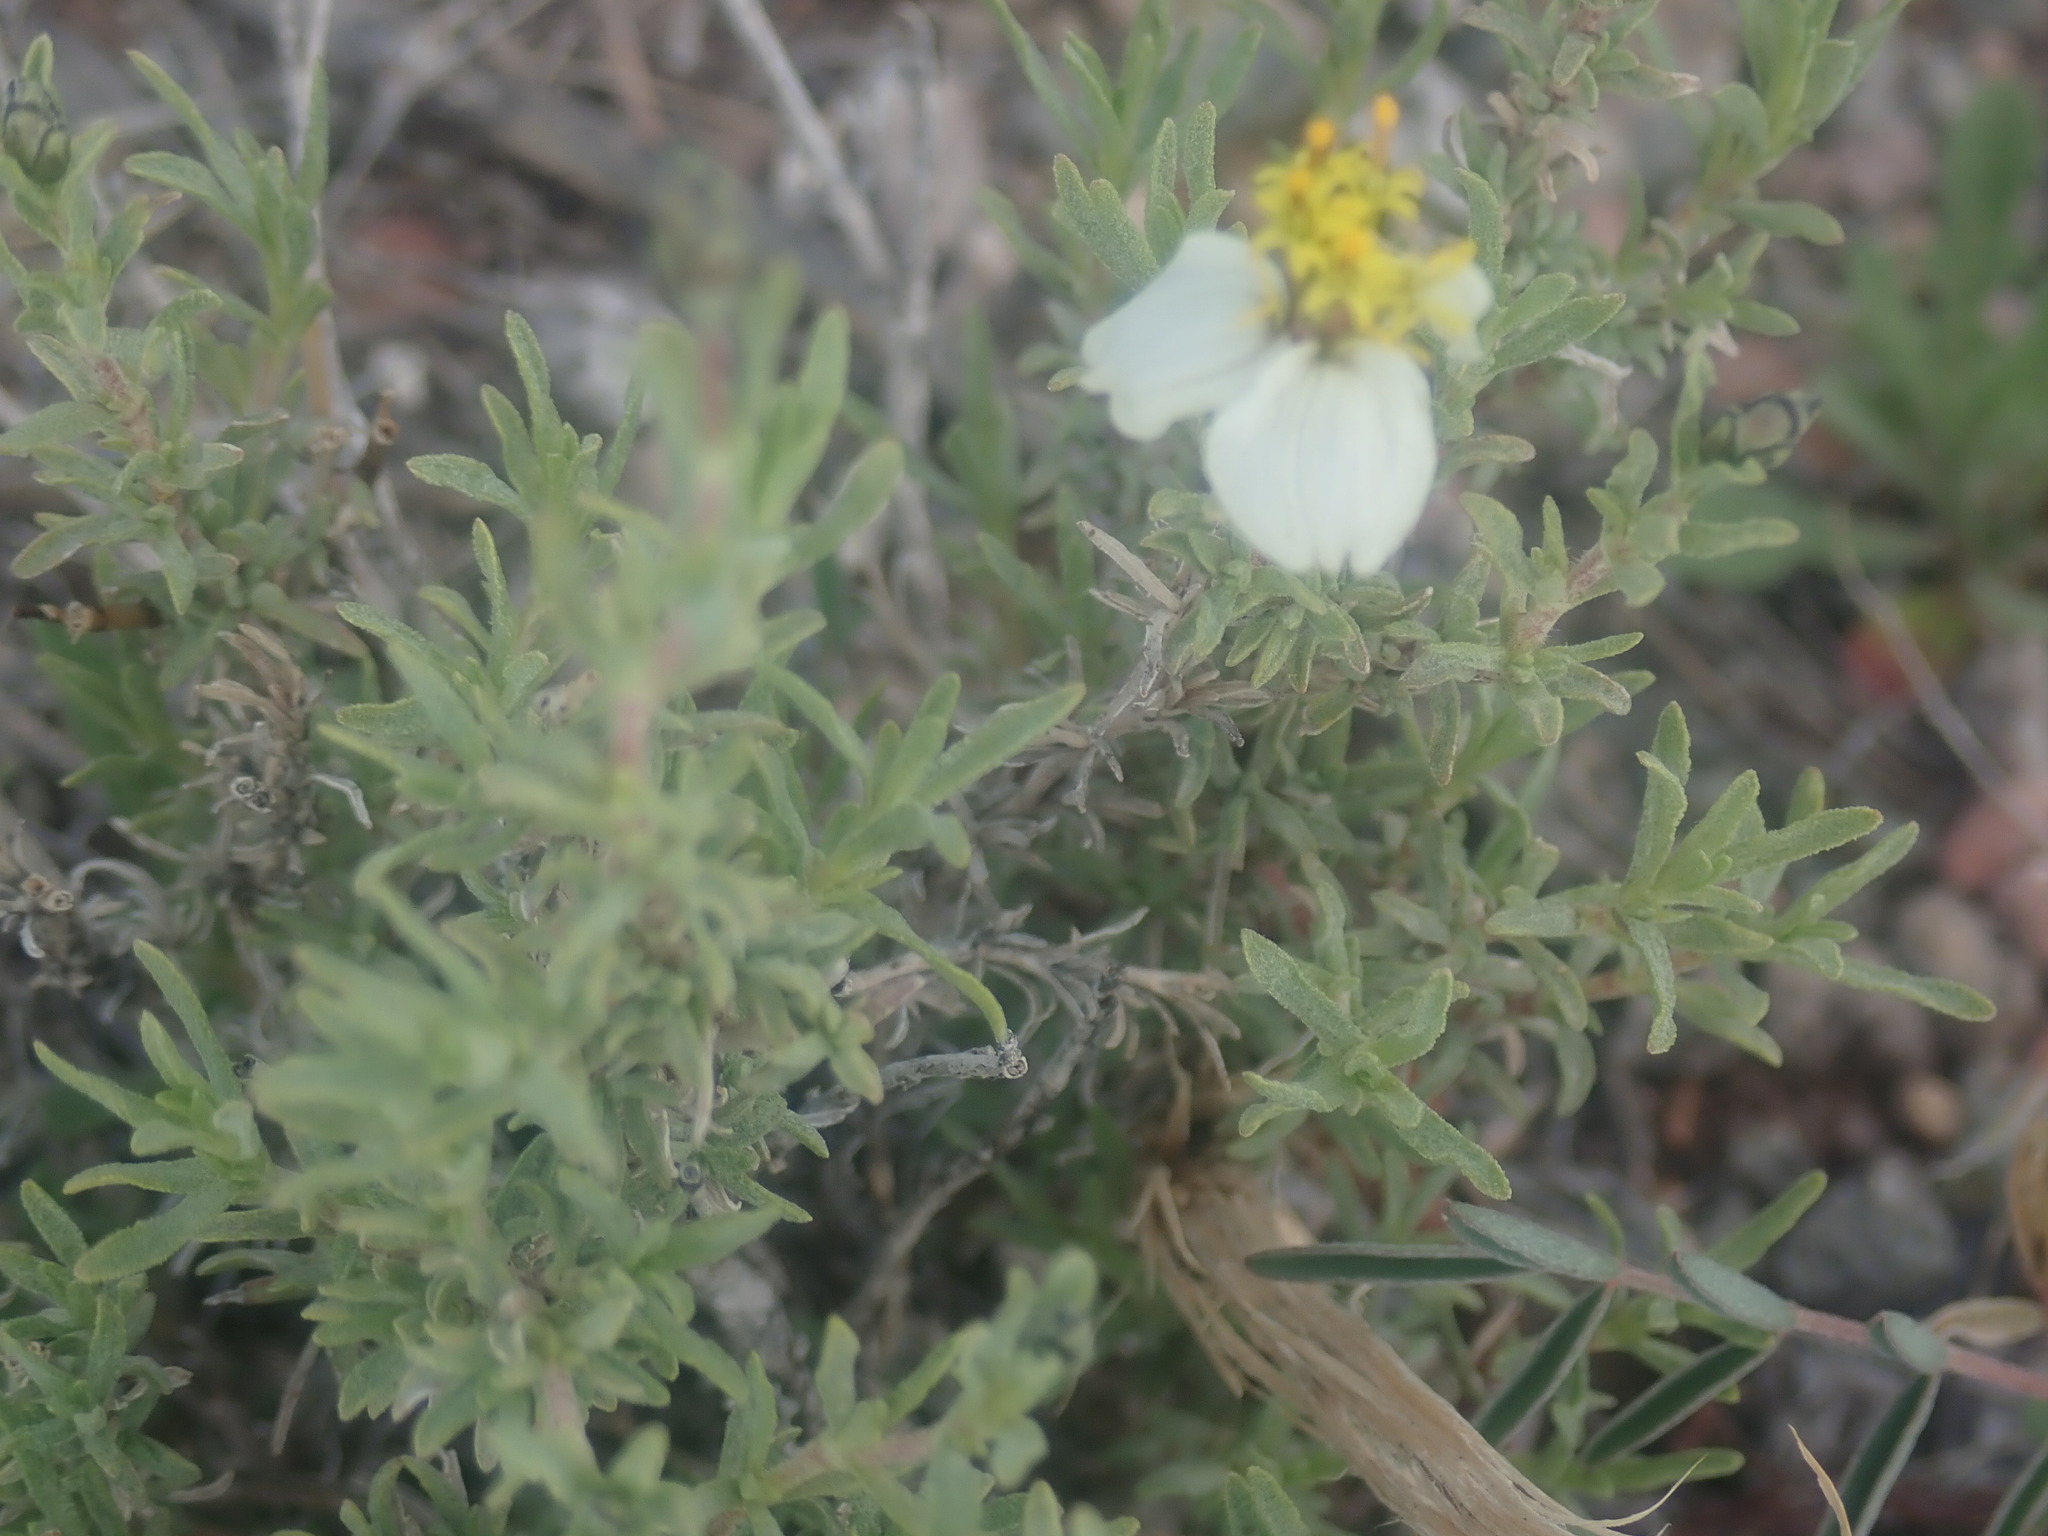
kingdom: Plantae
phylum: Tracheophyta
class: Magnoliopsida
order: Asterales
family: Asteraceae
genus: Zinnia
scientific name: Zinnia acerosa
